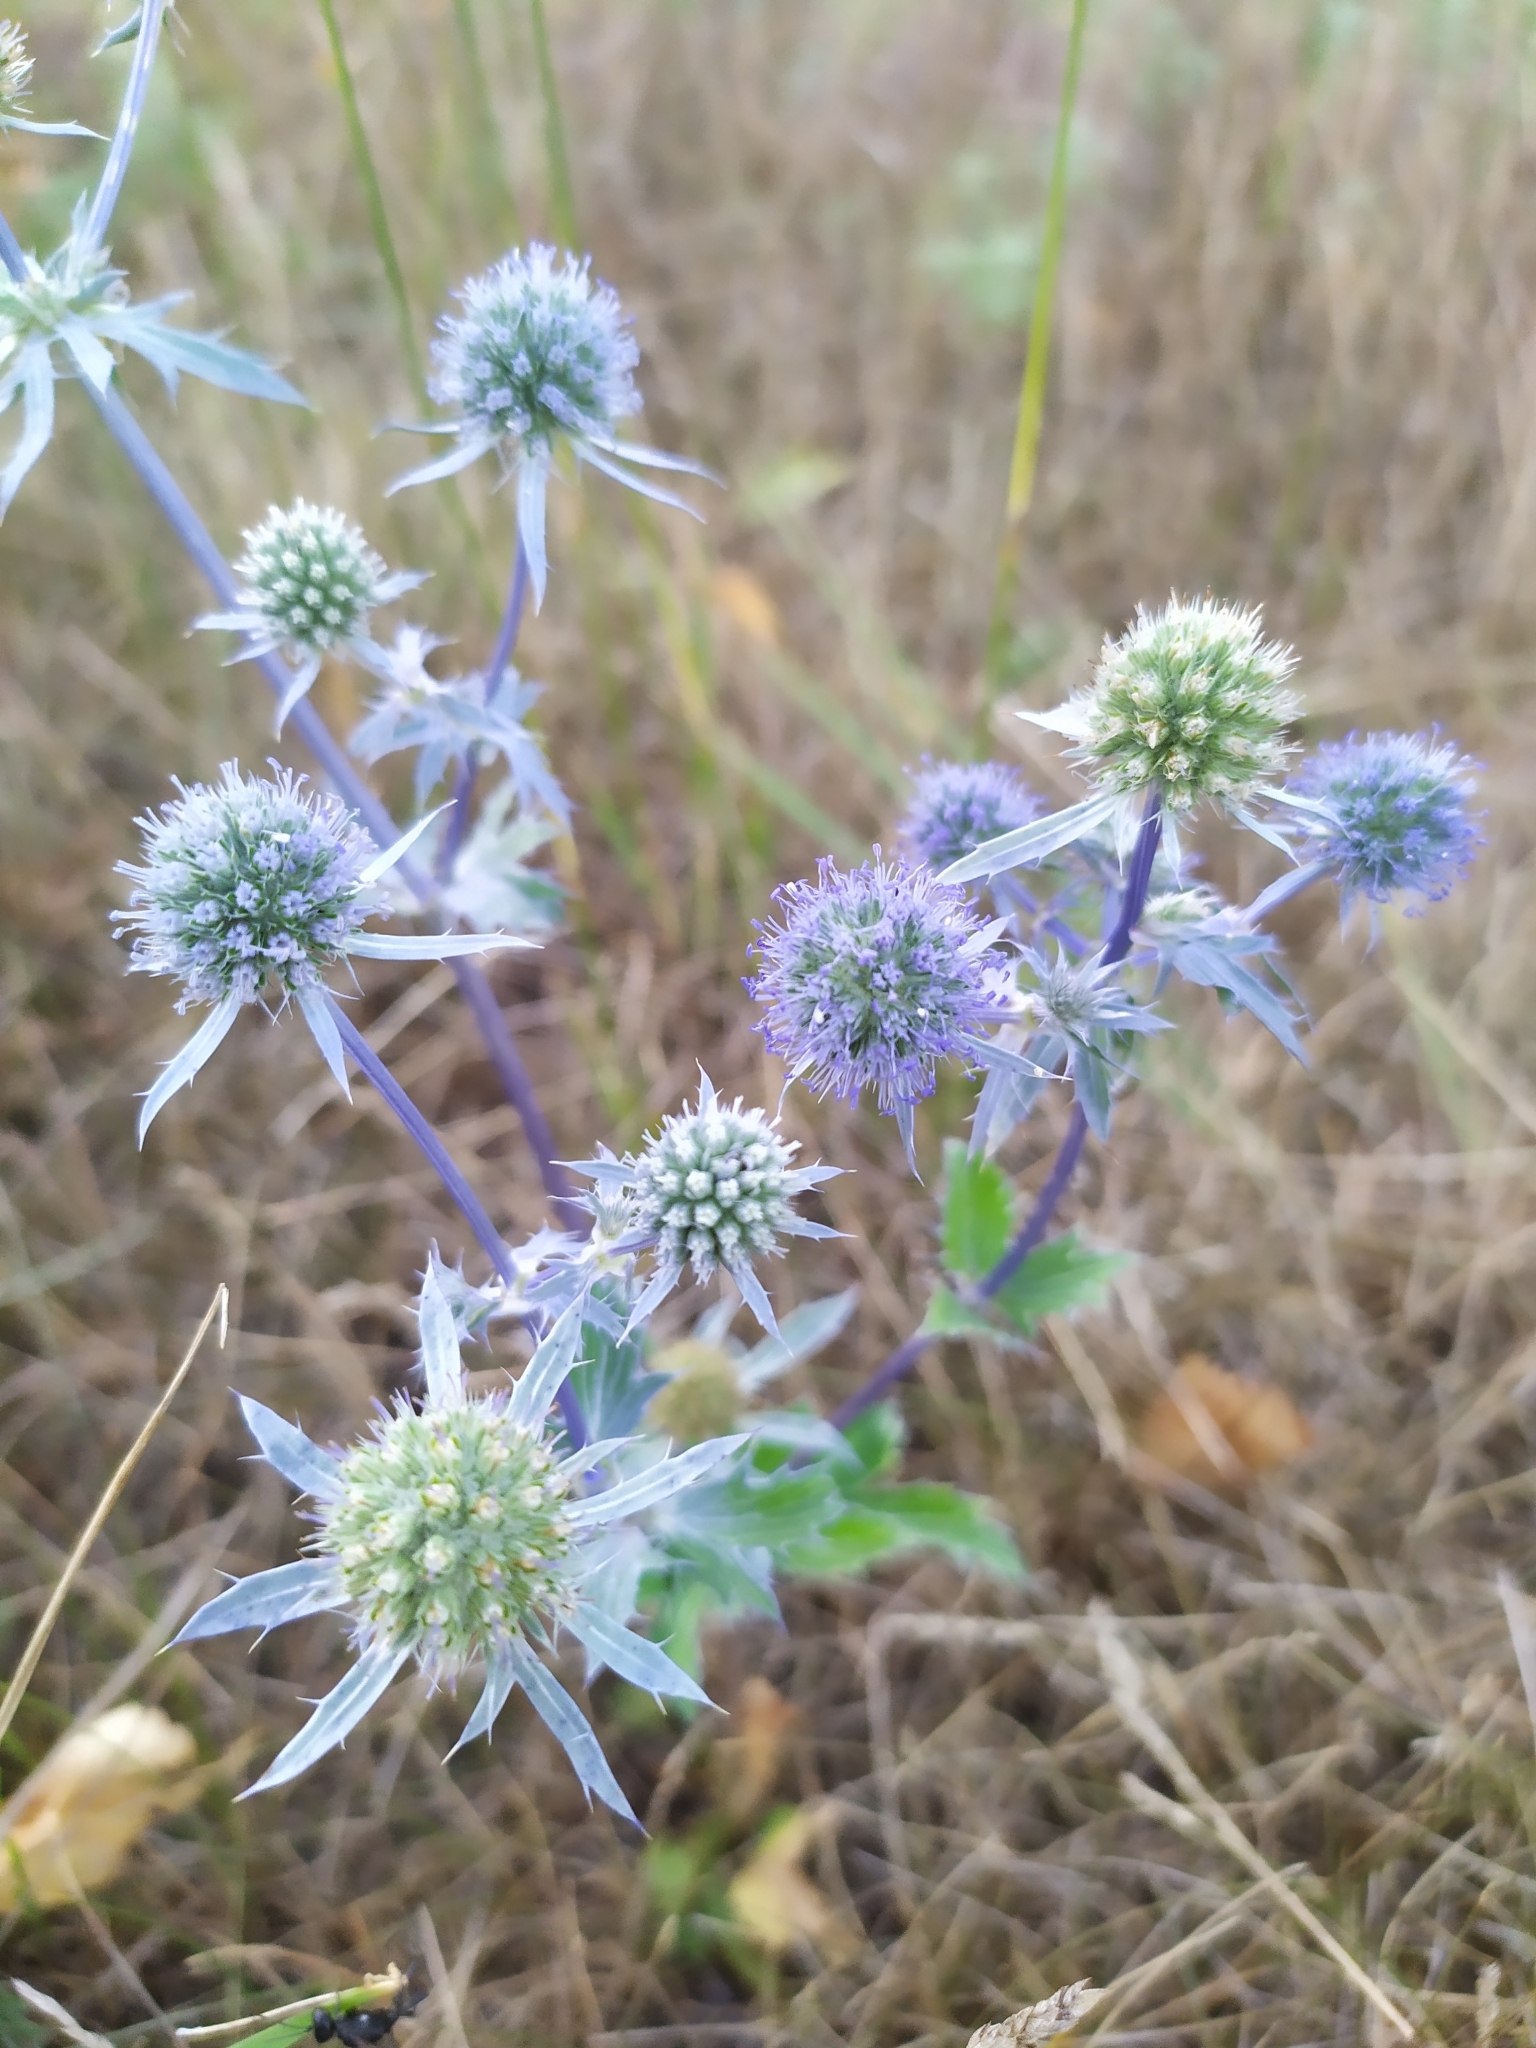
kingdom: Plantae
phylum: Tracheophyta
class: Magnoliopsida
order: Apiales
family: Apiaceae
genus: Eryngium
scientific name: Eryngium planum
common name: Blue eryngo
